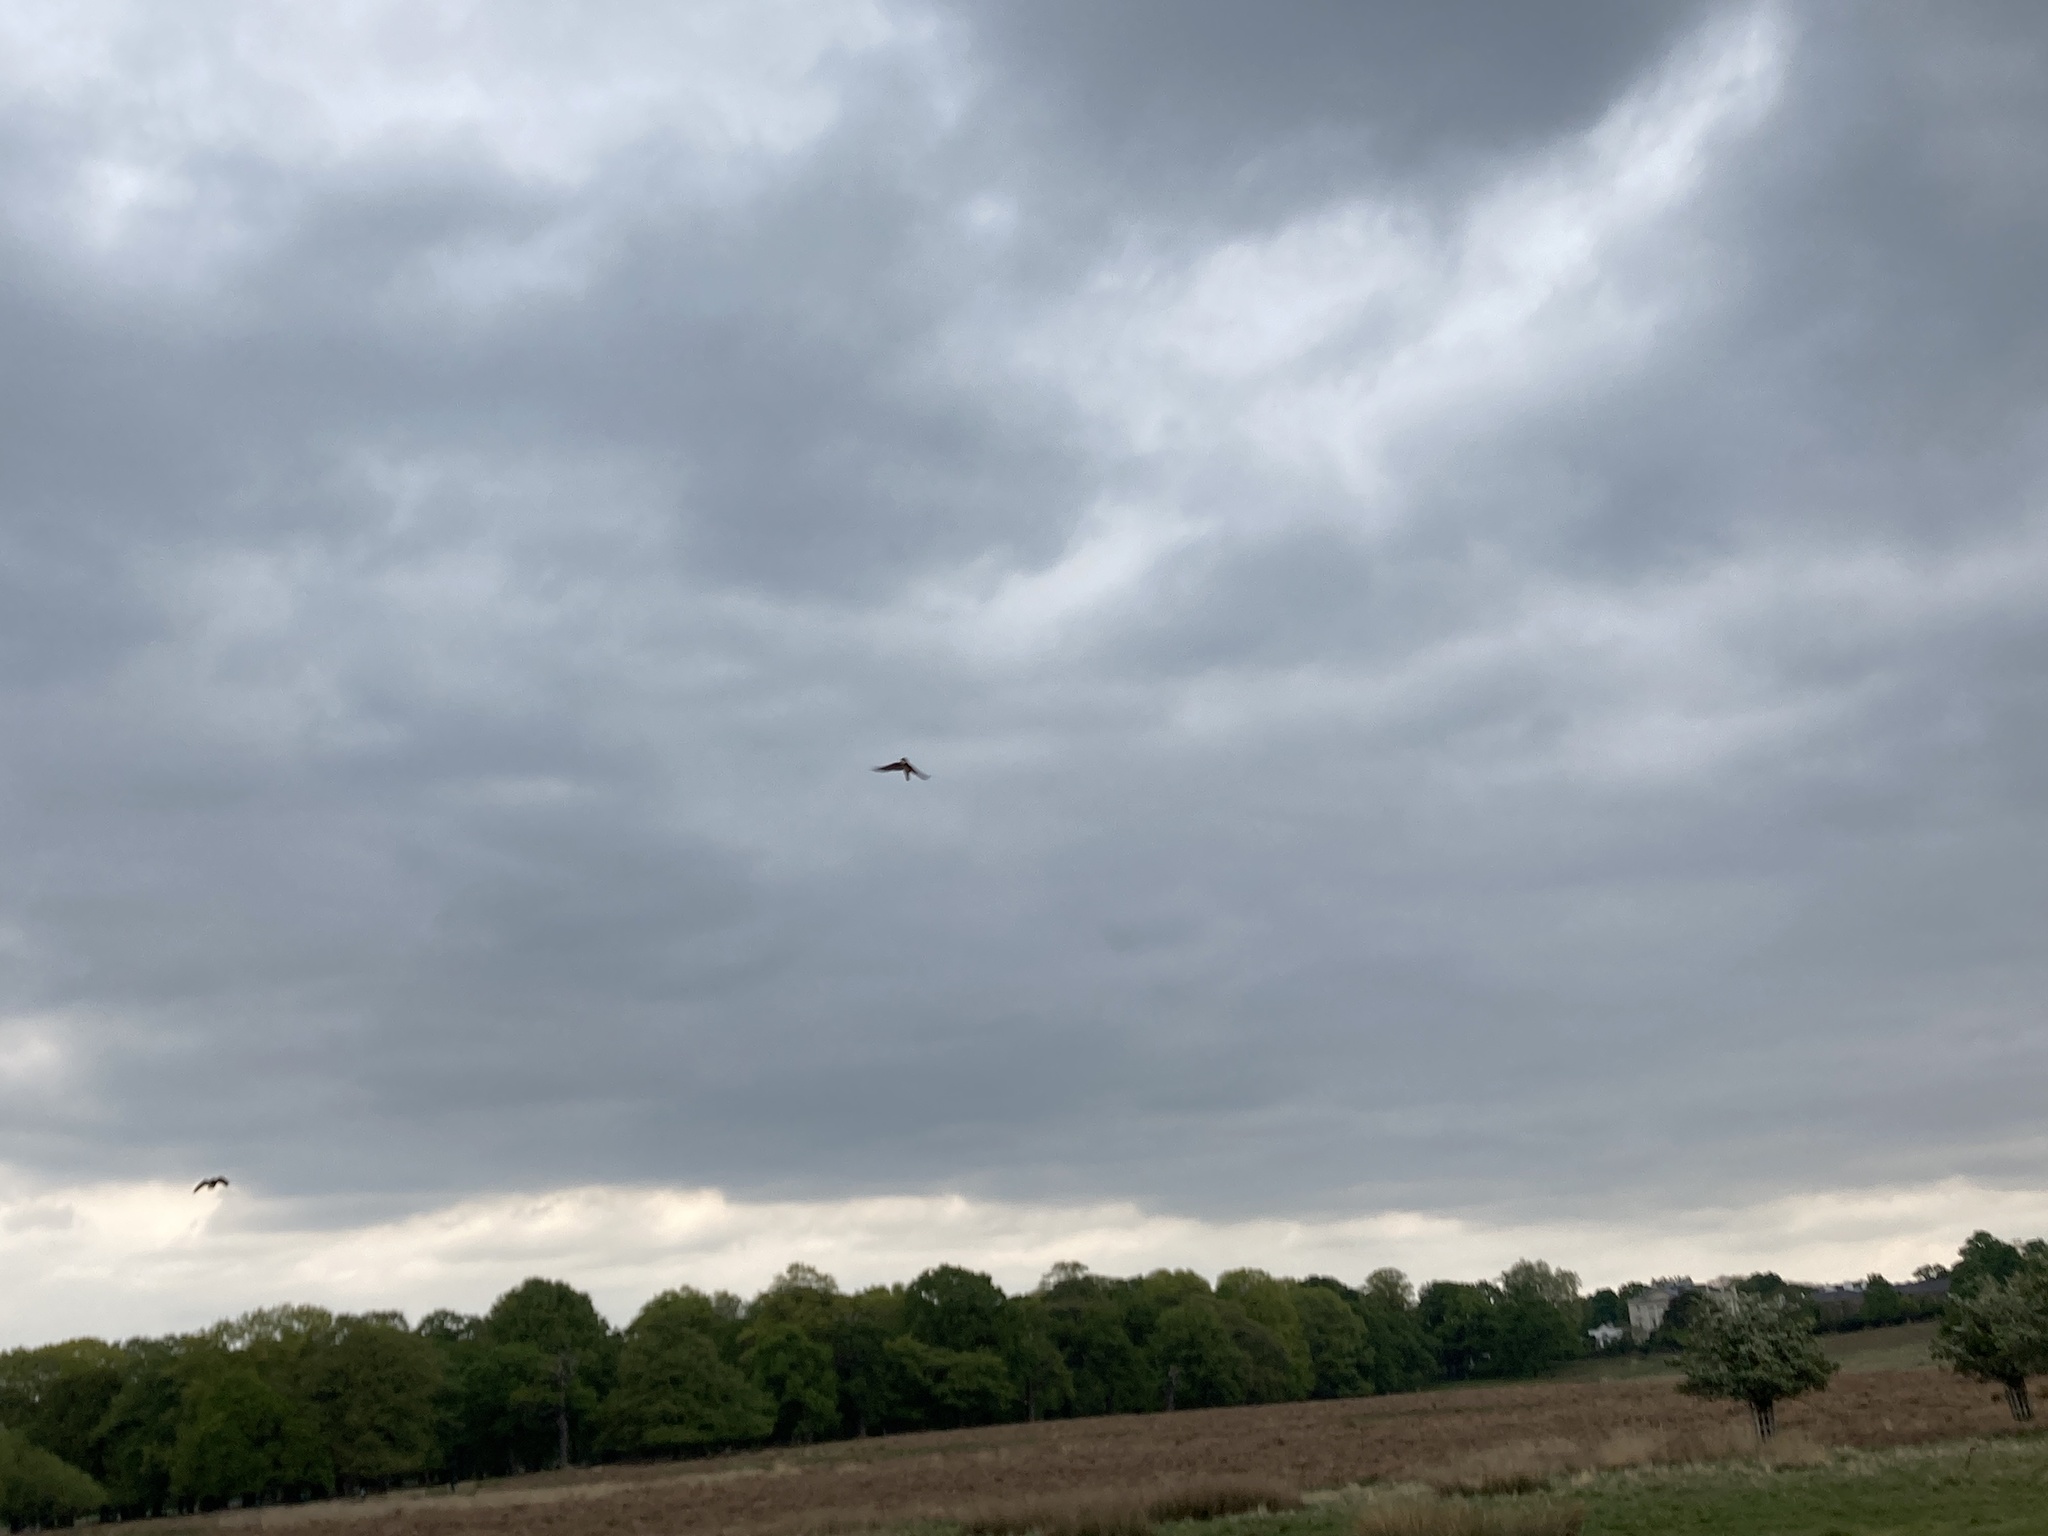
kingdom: Animalia
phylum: Chordata
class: Aves
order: Passeriformes
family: Hirundinidae
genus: Riparia
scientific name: Riparia riparia
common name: Sand martin
